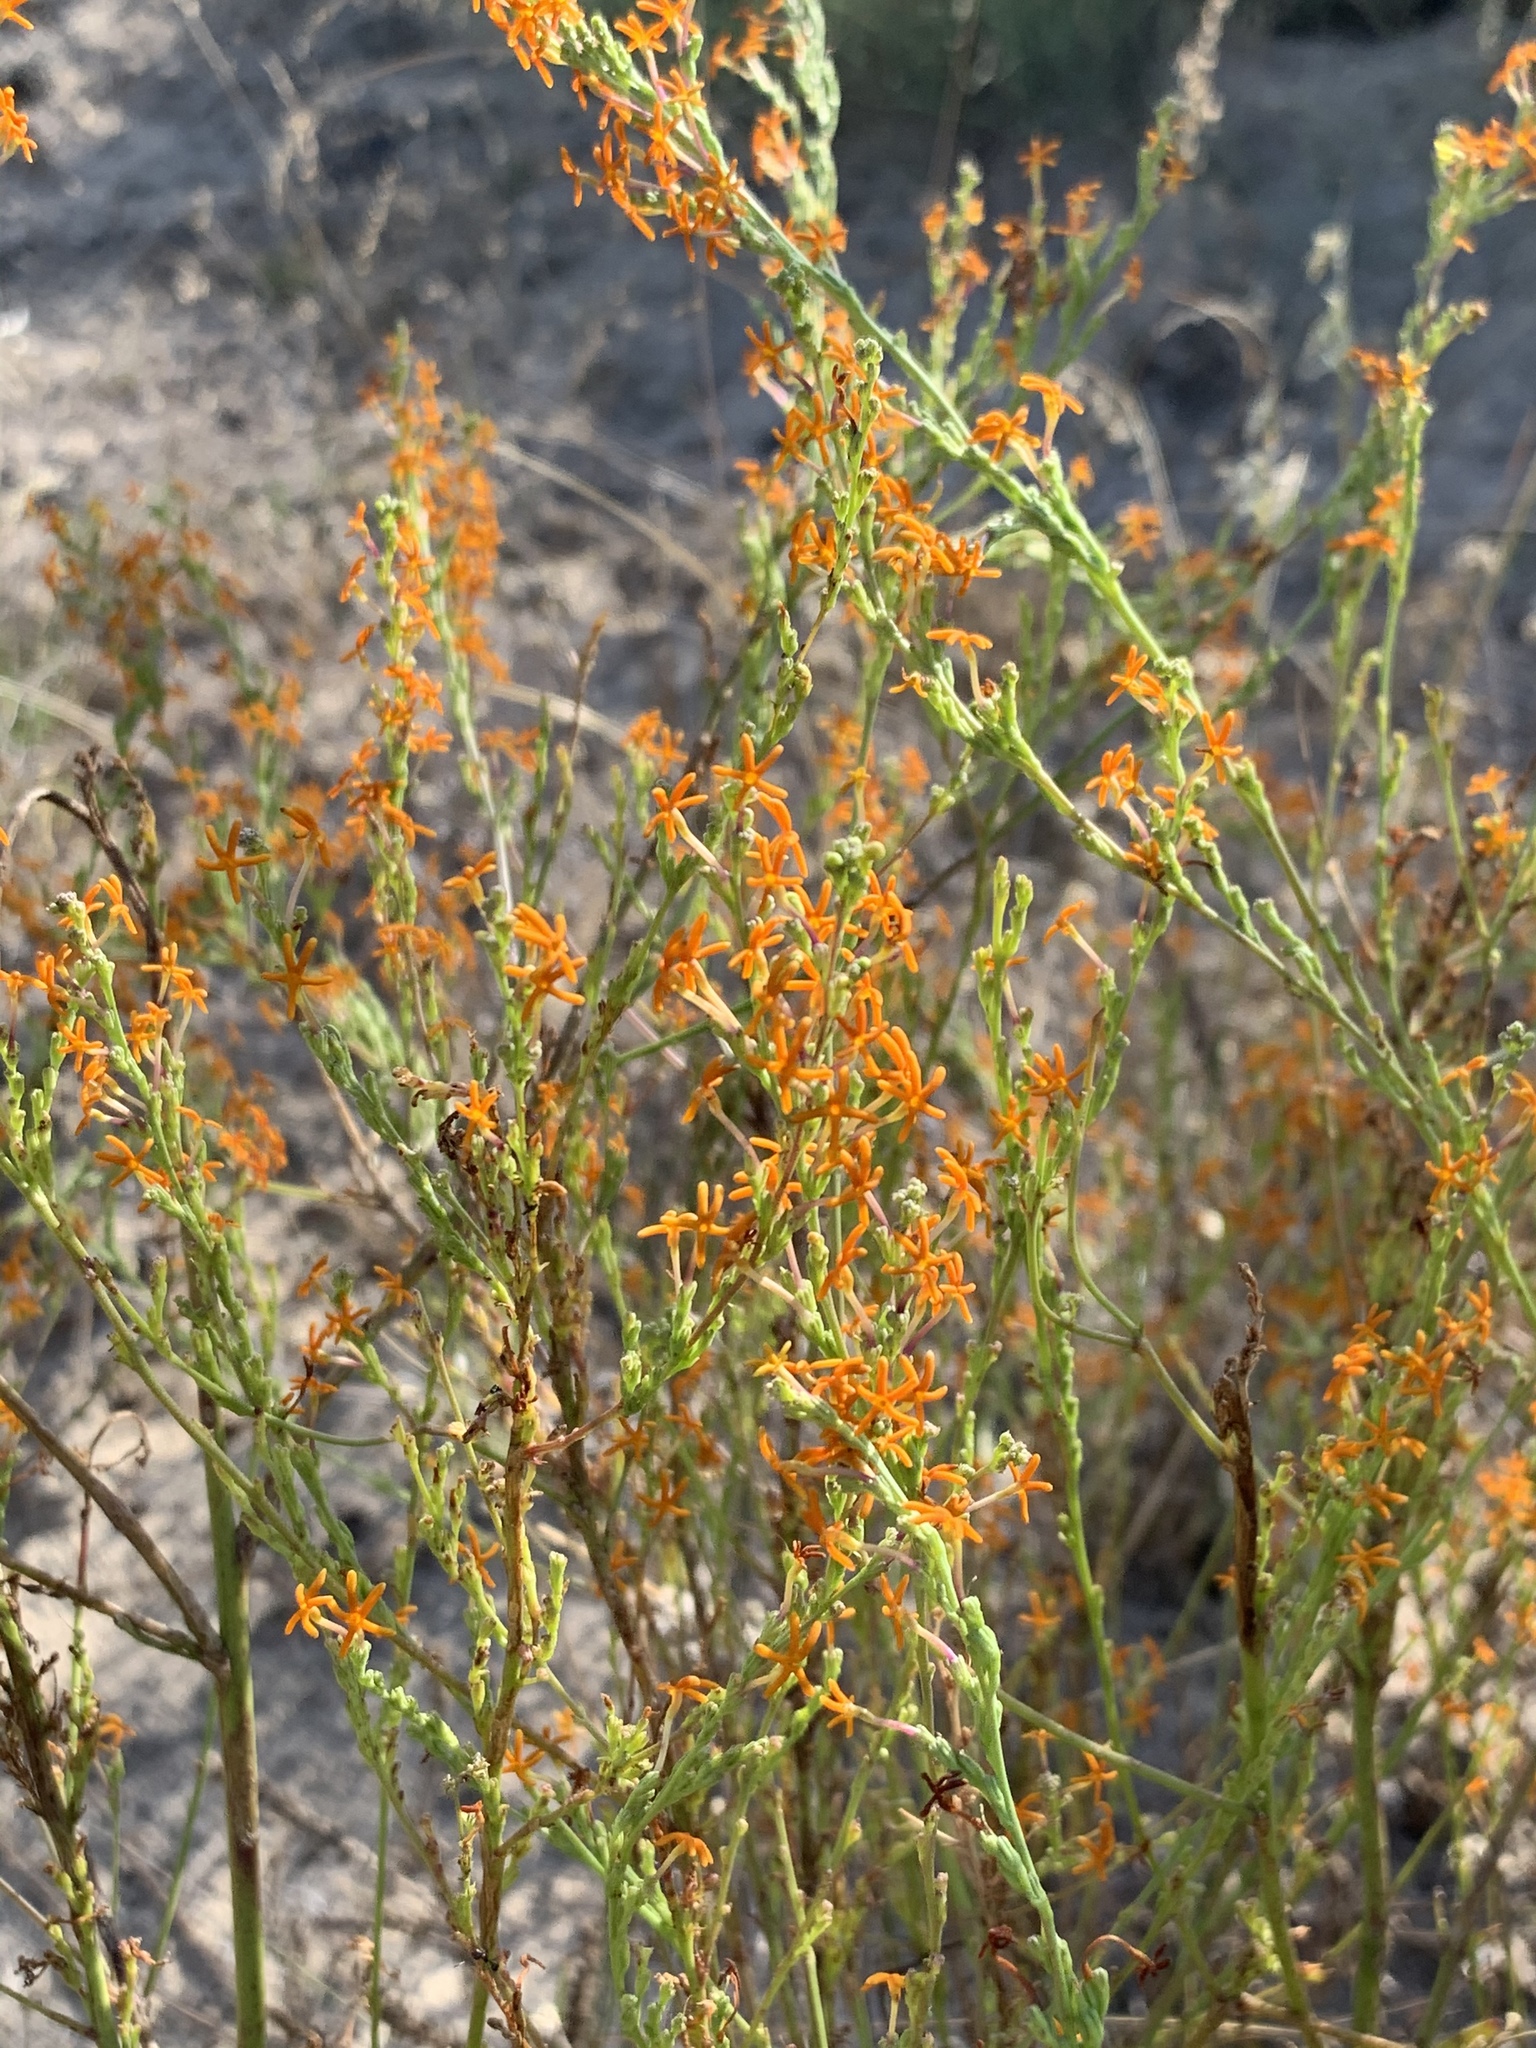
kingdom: Plantae
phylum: Tracheophyta
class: Magnoliopsida
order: Lamiales
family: Scrophulariaceae
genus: Manulea
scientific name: Manulea rubra
